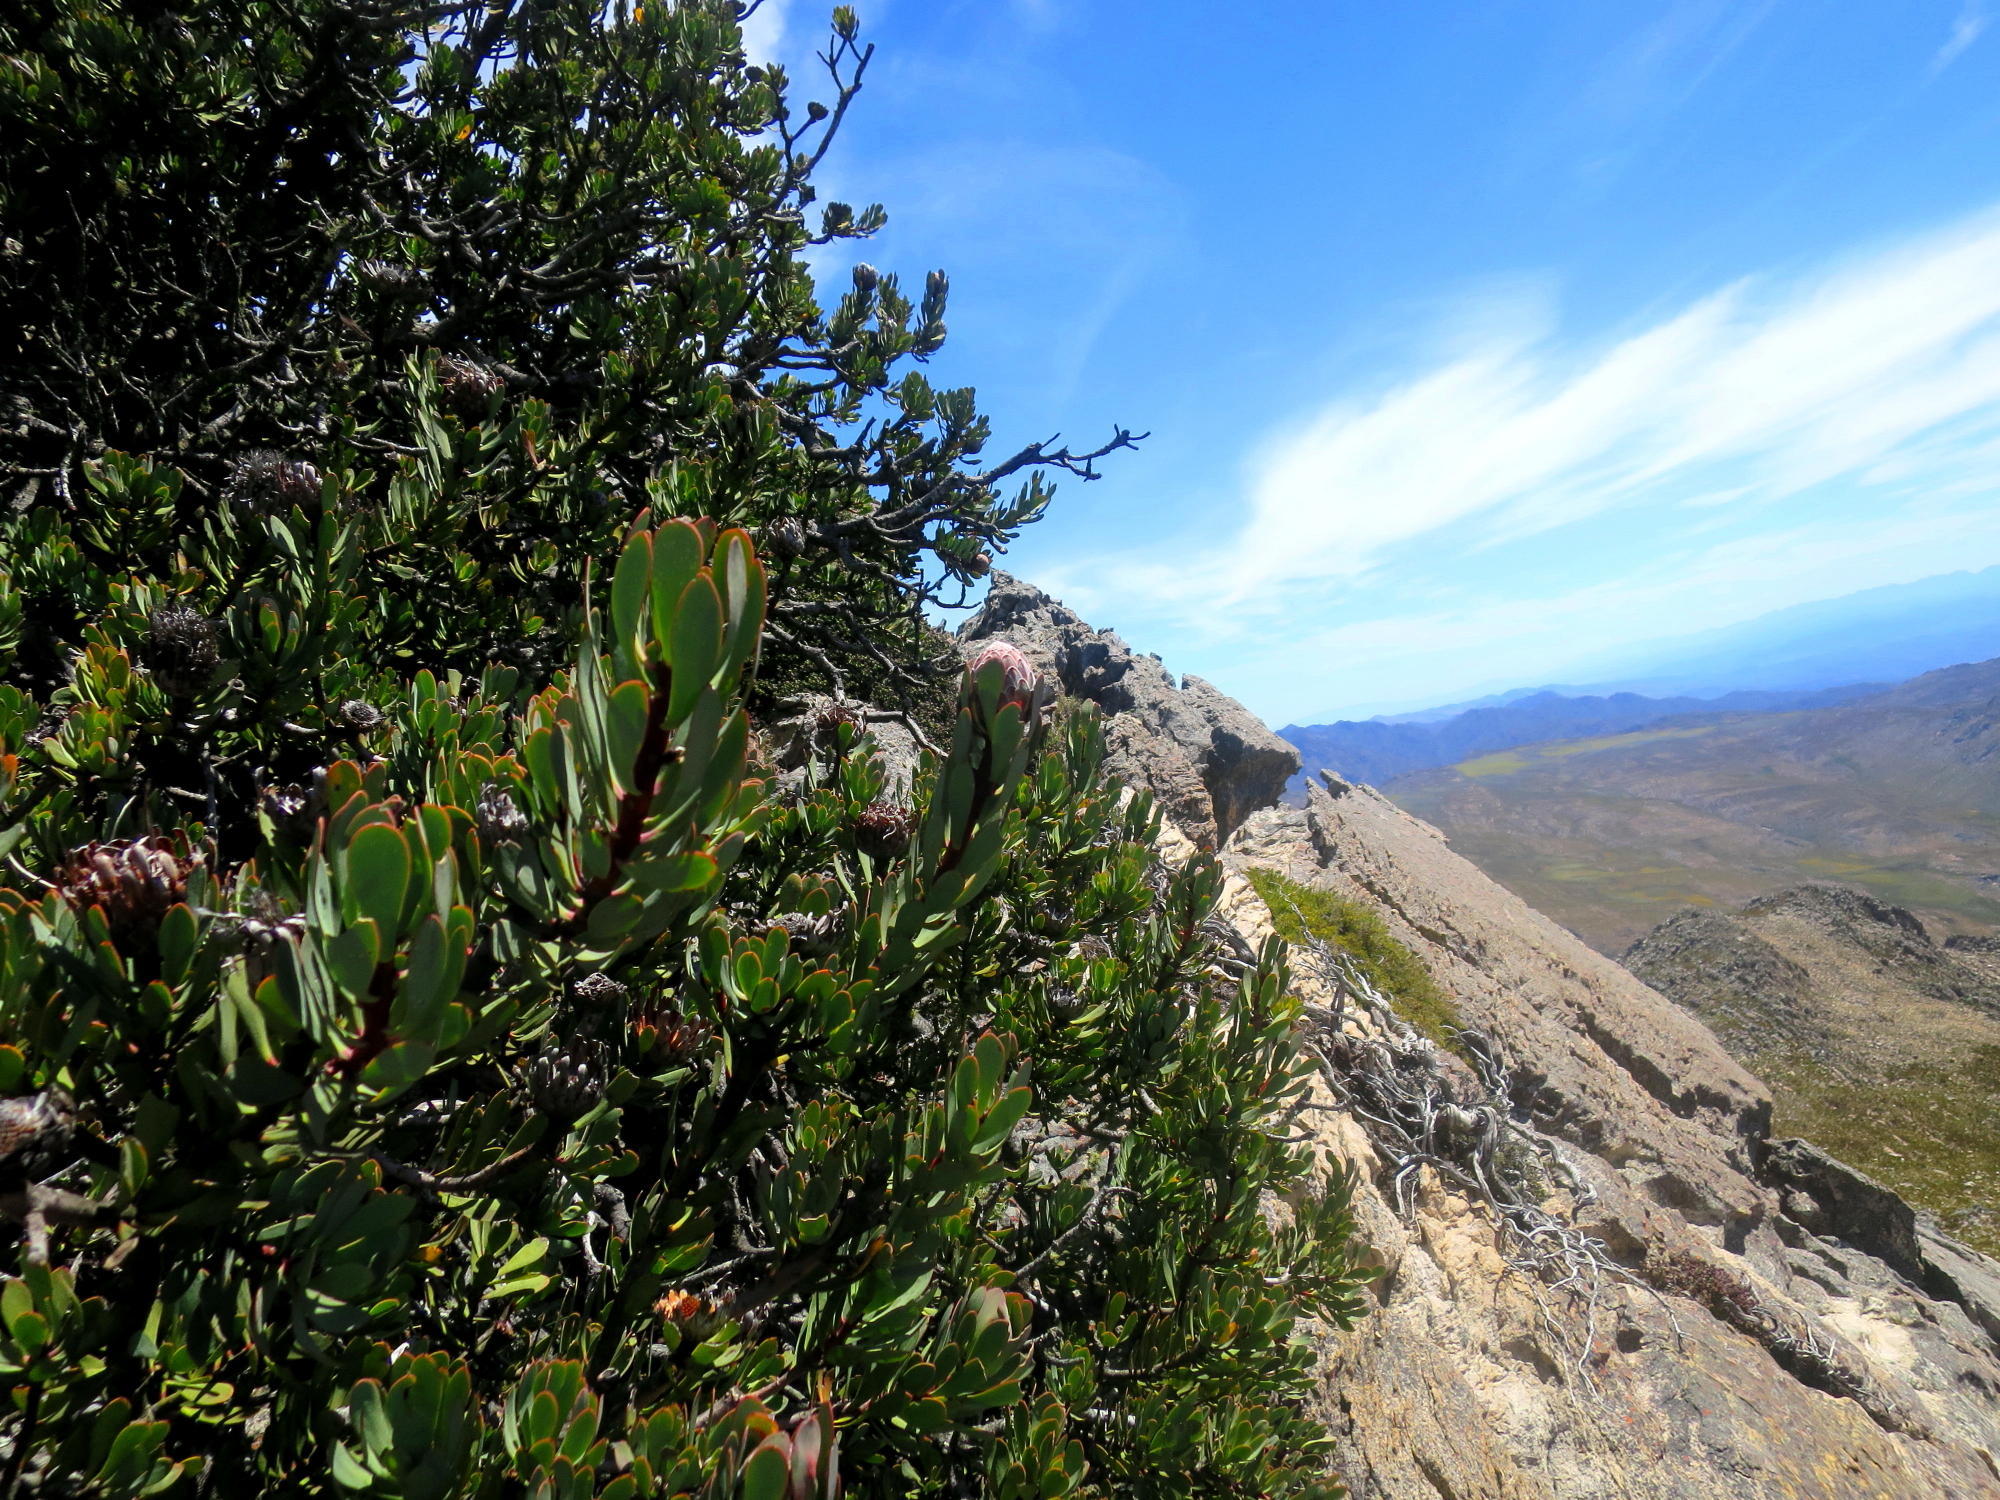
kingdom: Plantae
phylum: Tracheophyta
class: Magnoliopsida
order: Proteales
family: Proteaceae
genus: Protea
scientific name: Protea rupicola
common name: Krantz protea
